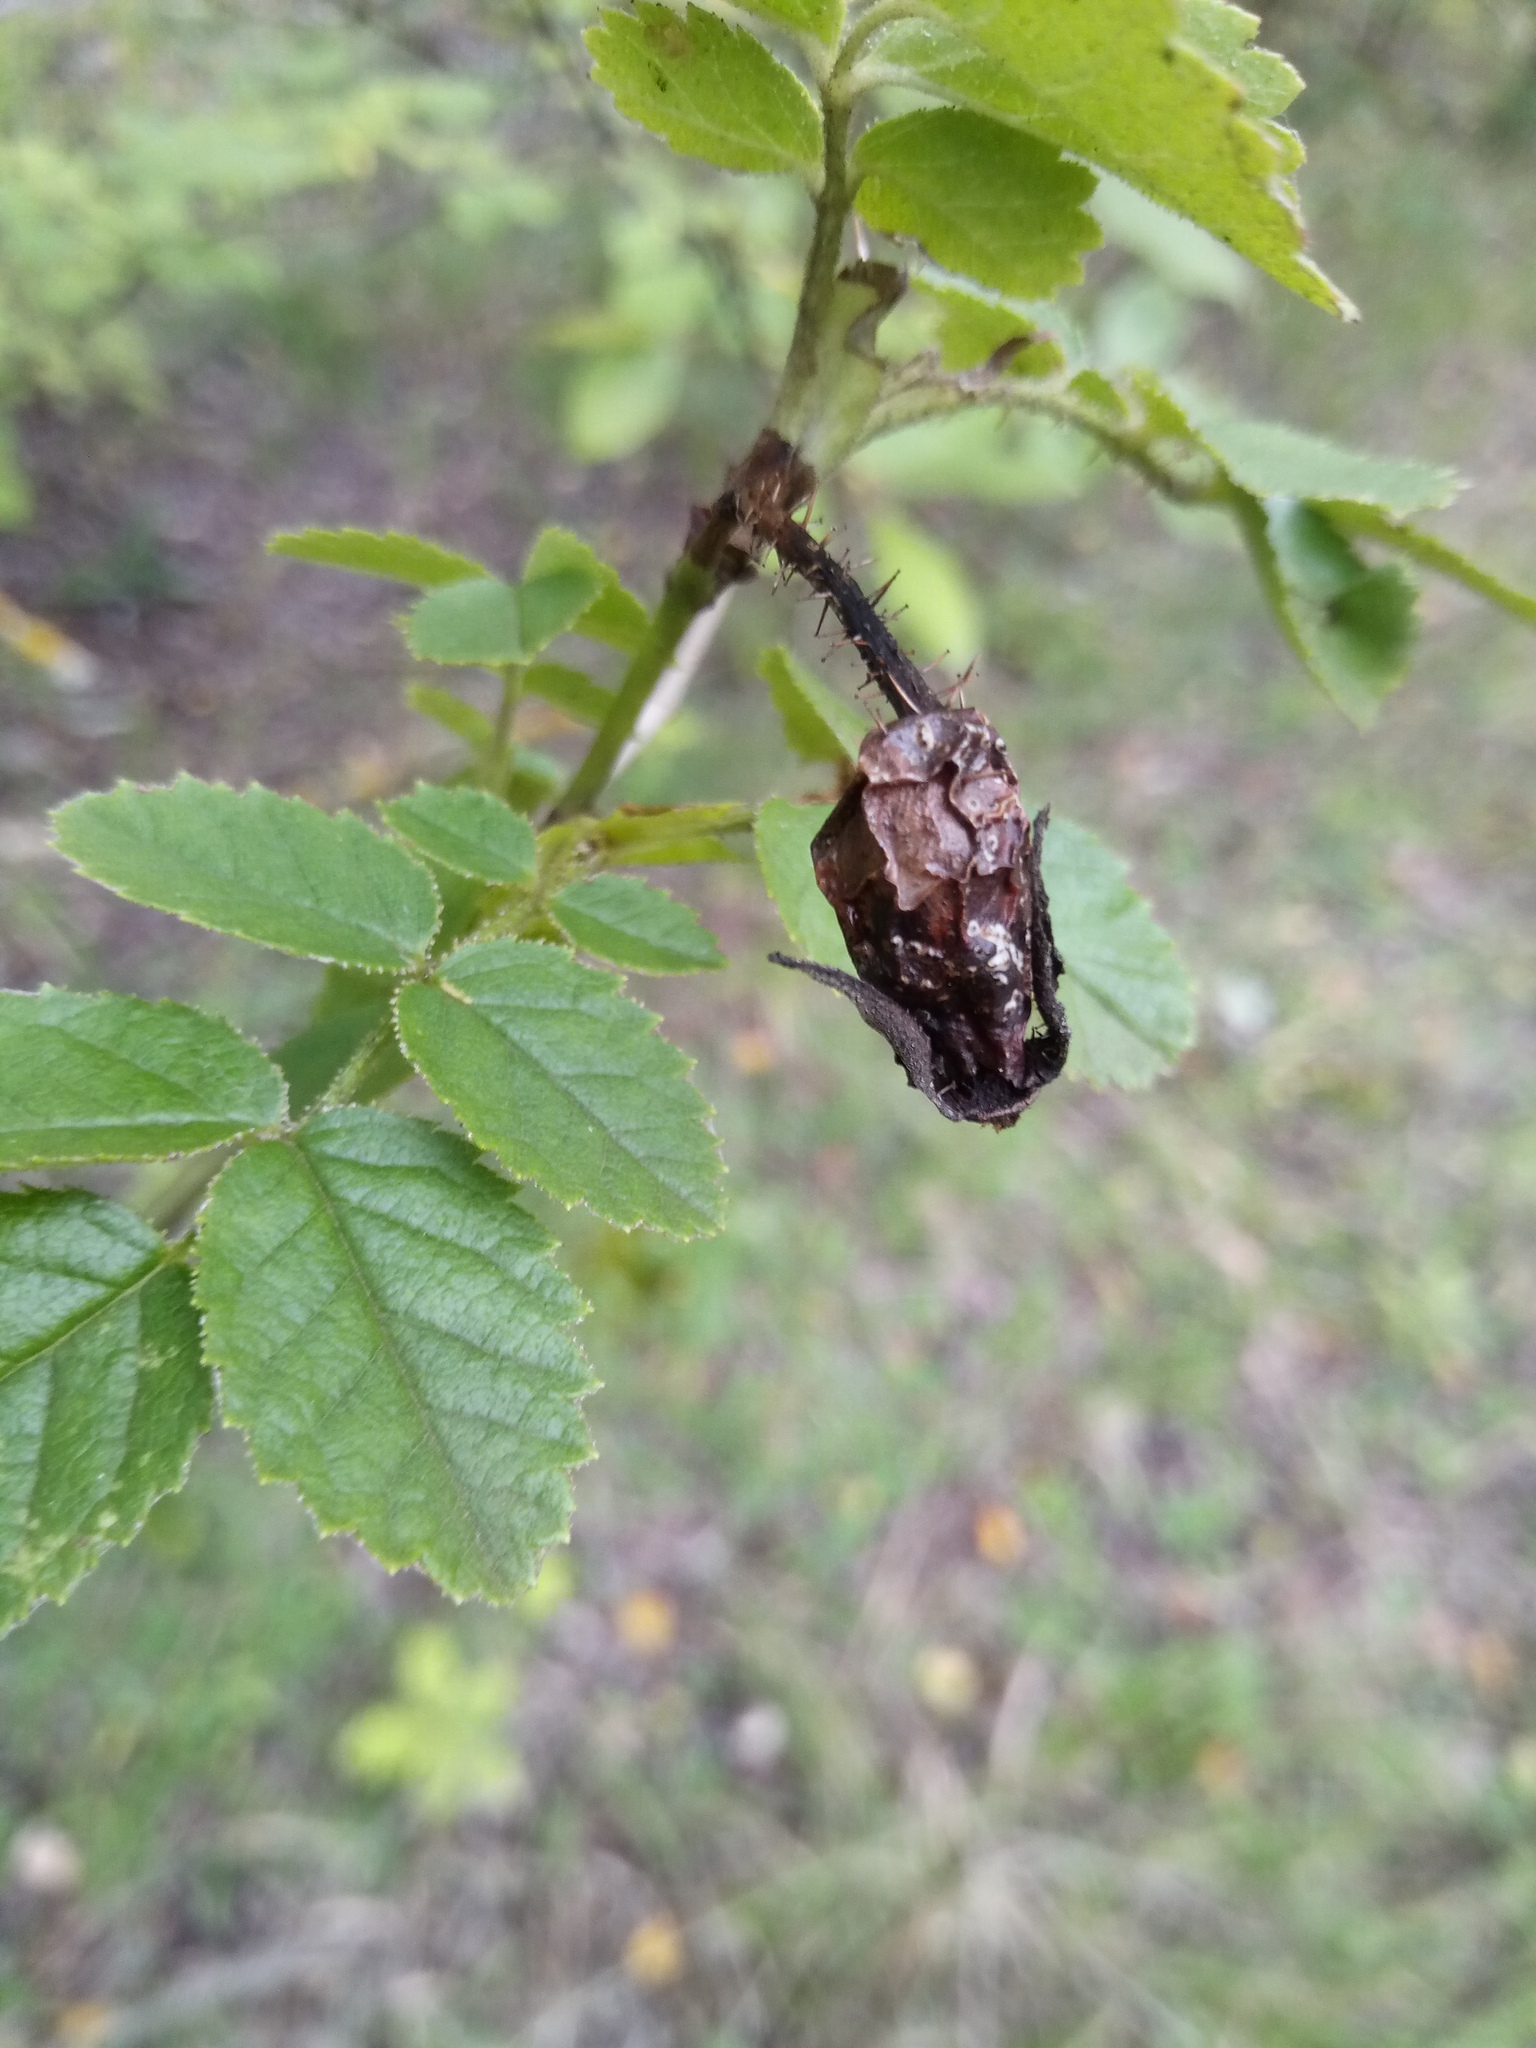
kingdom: Plantae
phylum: Tracheophyta
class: Magnoliopsida
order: Rosales
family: Rosaceae
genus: Rosa
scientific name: Rosa rubiginosa
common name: Sweet-briar
